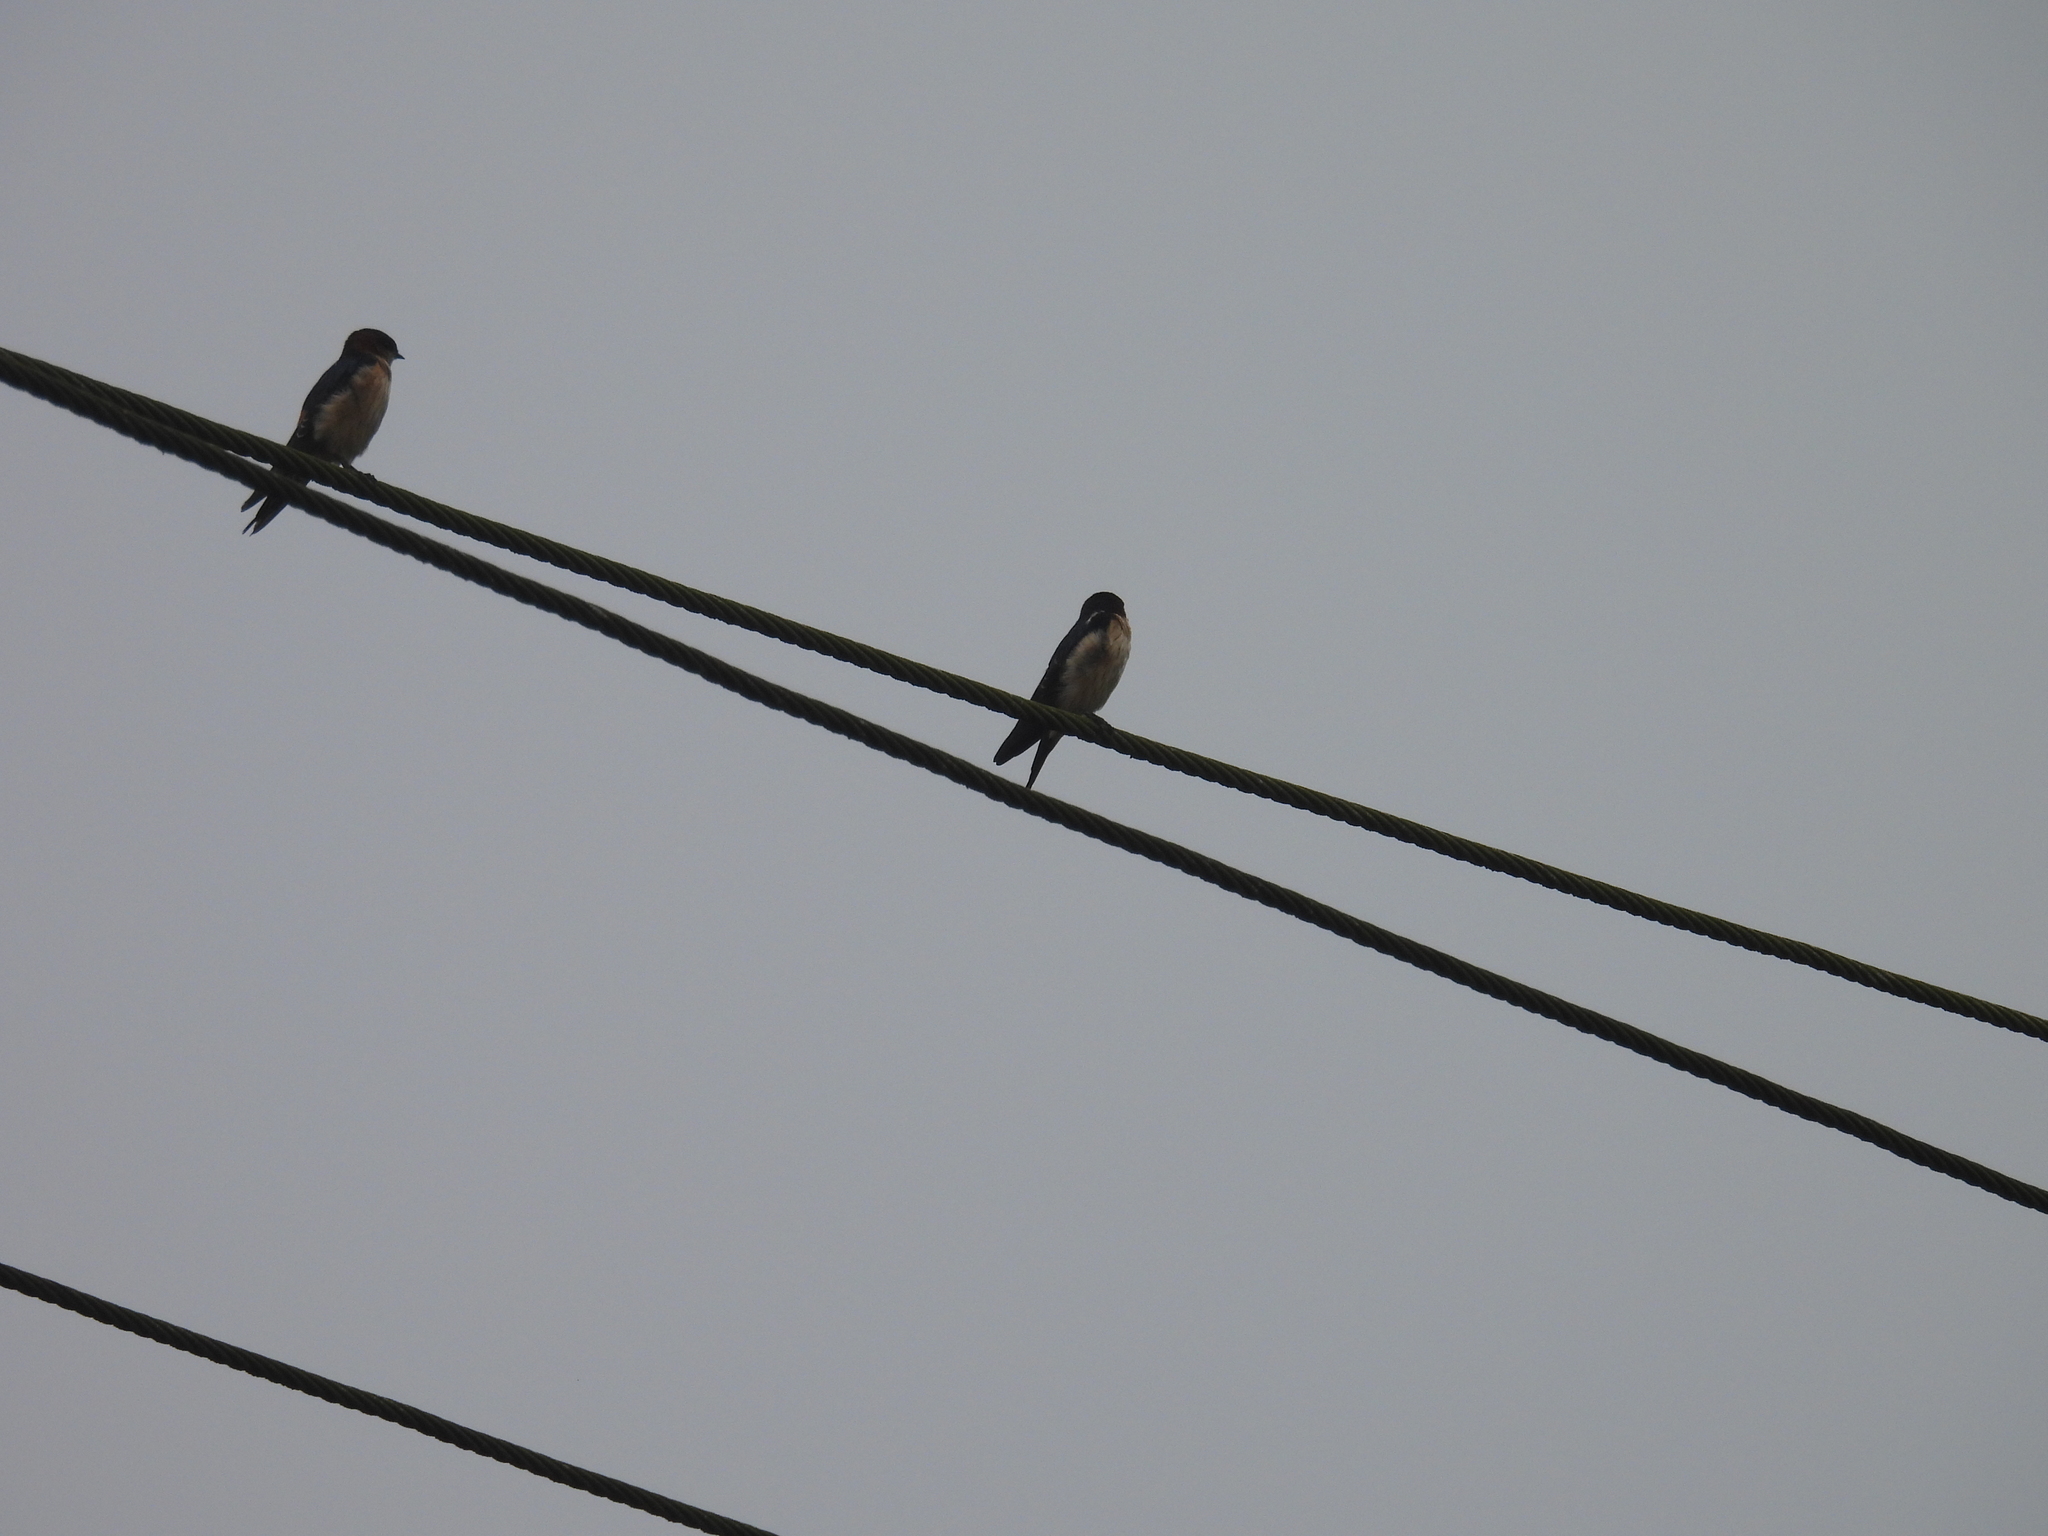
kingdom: Animalia
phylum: Chordata
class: Aves
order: Passeriformes
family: Hirundinidae
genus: Cecropis
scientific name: Cecropis daurica
